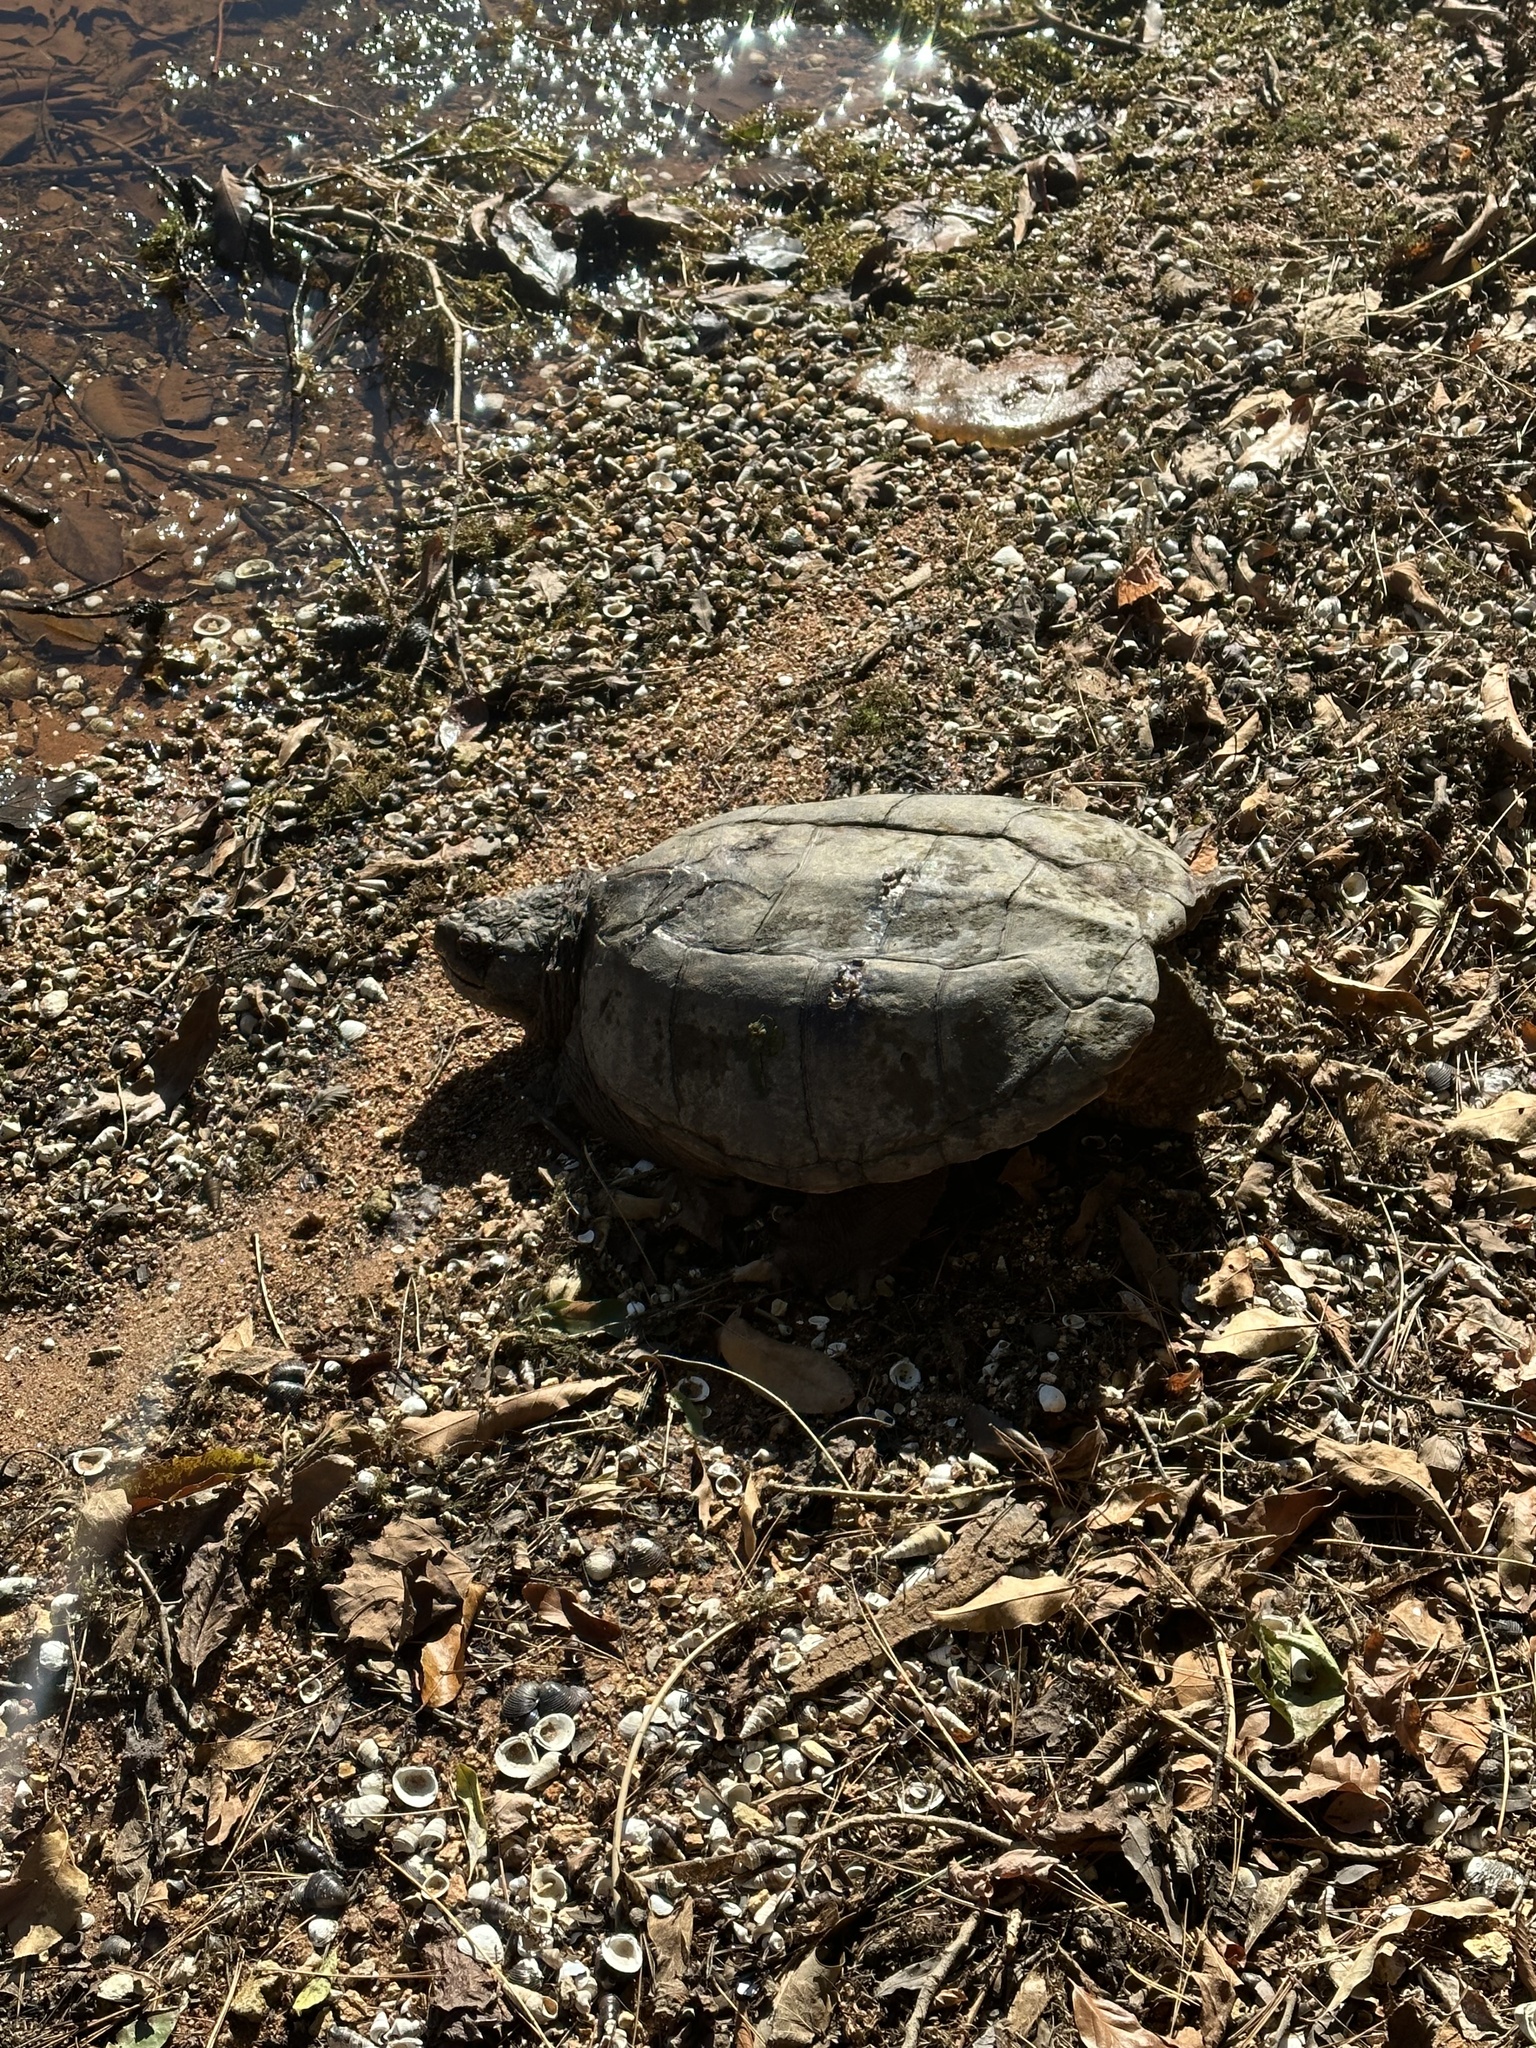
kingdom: Animalia
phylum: Chordata
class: Testudines
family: Chelydridae
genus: Chelydra
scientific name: Chelydra serpentina
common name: Common snapping turtle
